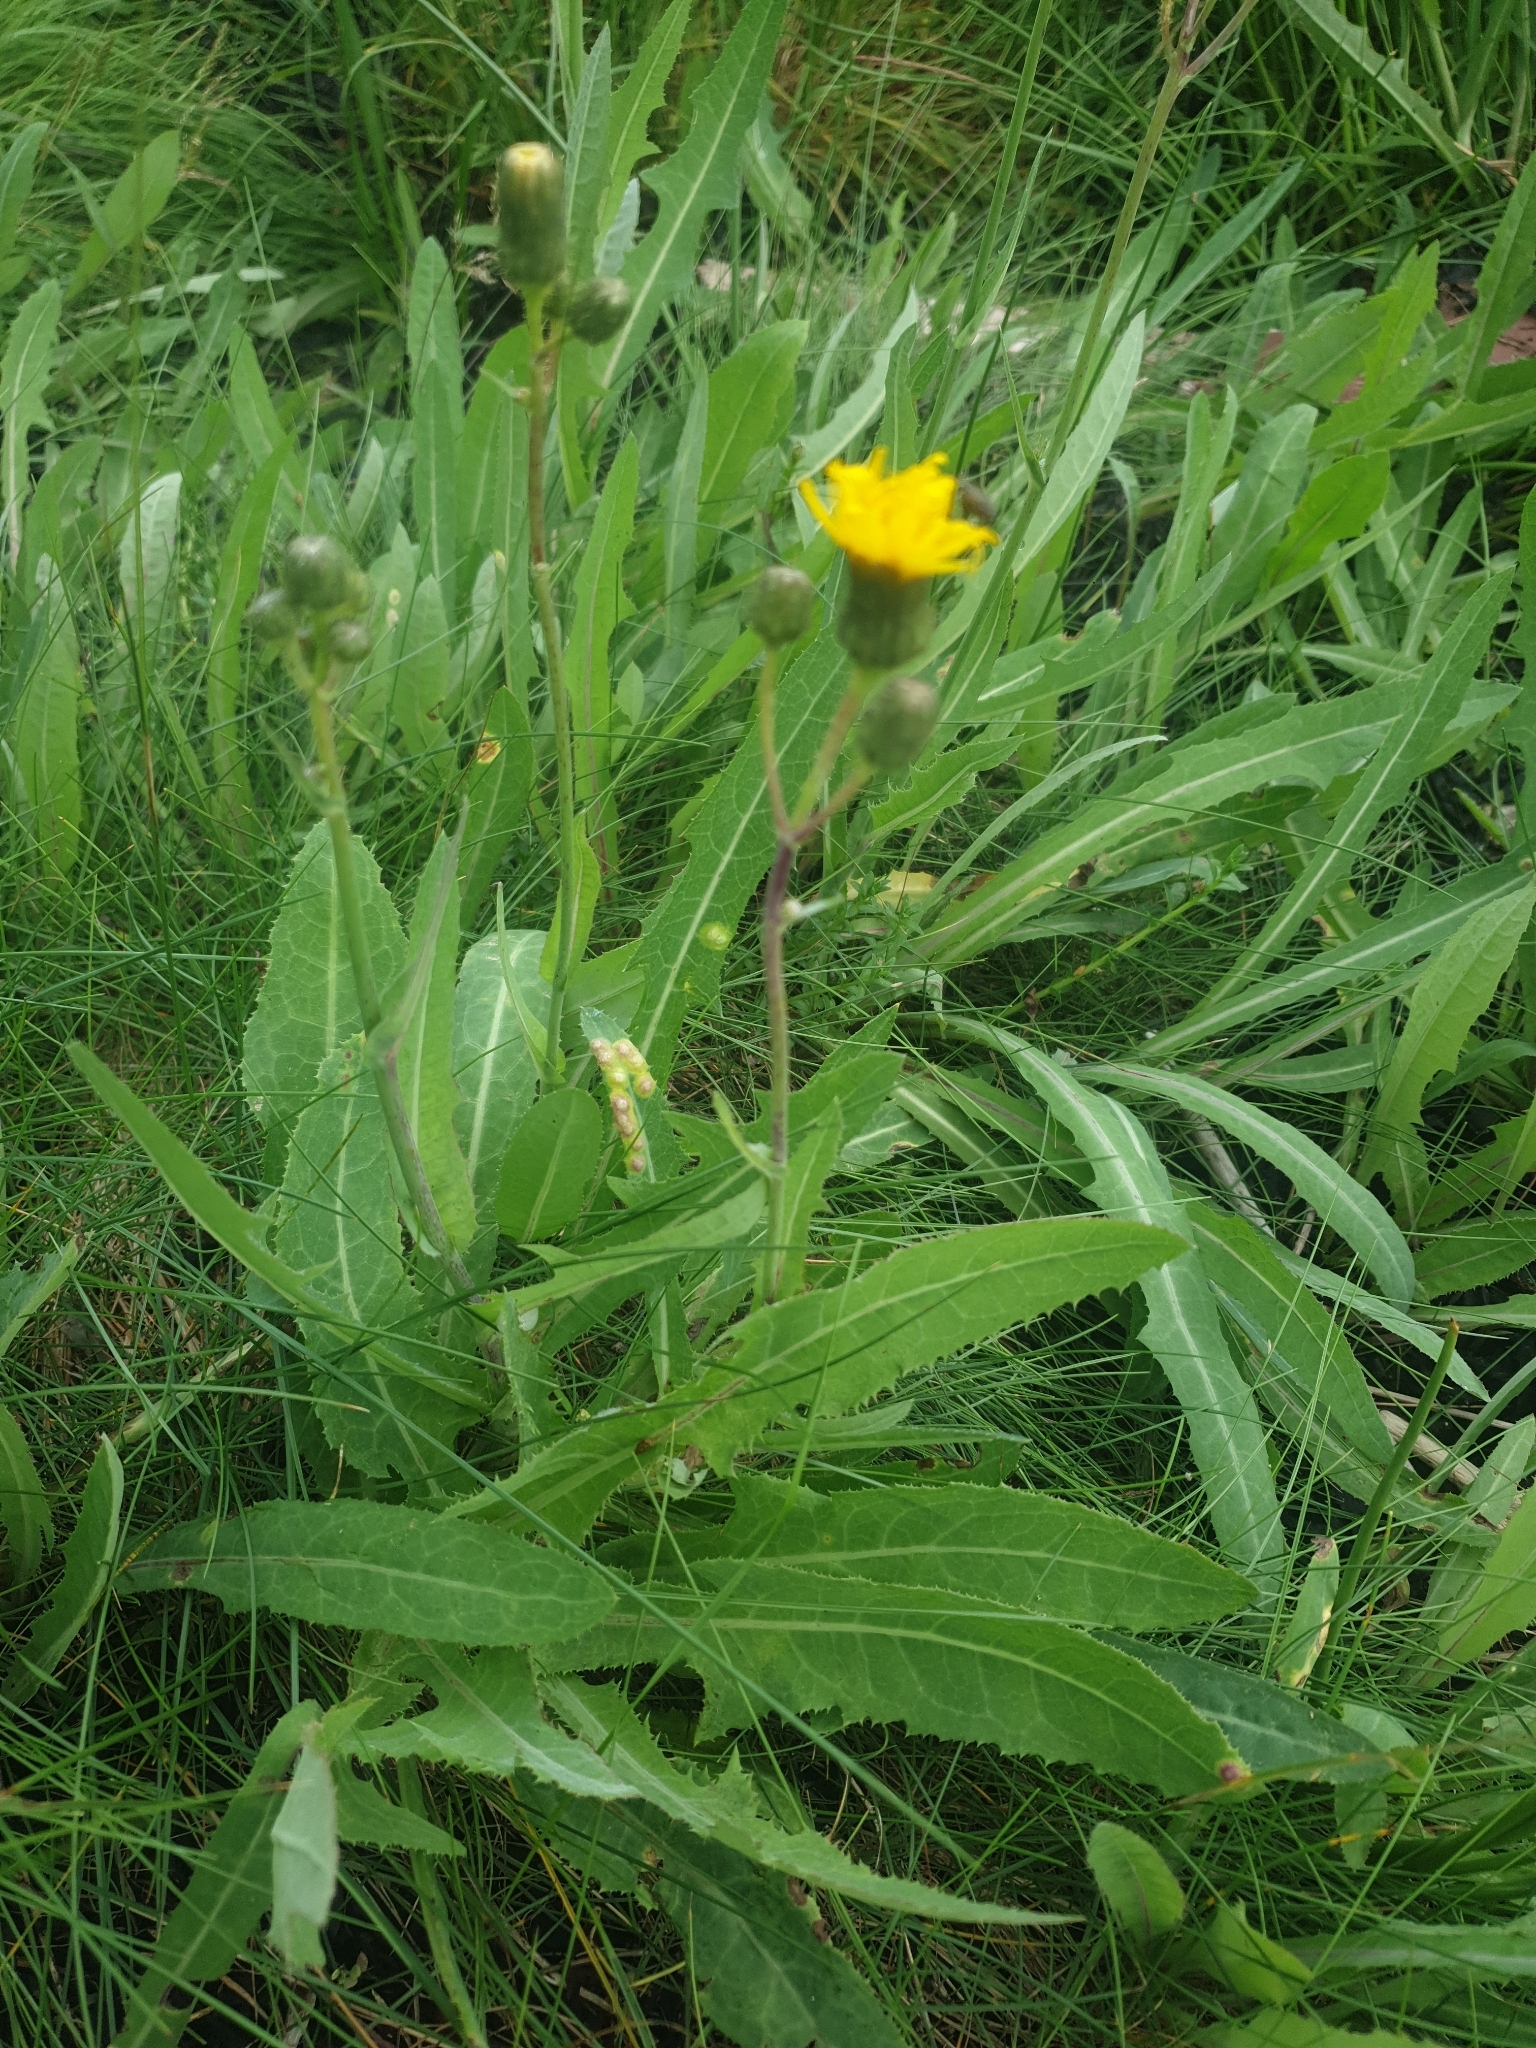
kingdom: Plantae
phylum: Tracheophyta
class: Magnoliopsida
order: Asterales
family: Asteraceae
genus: Sonchus
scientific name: Sonchus arvensis
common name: Perennial sow-thistle
